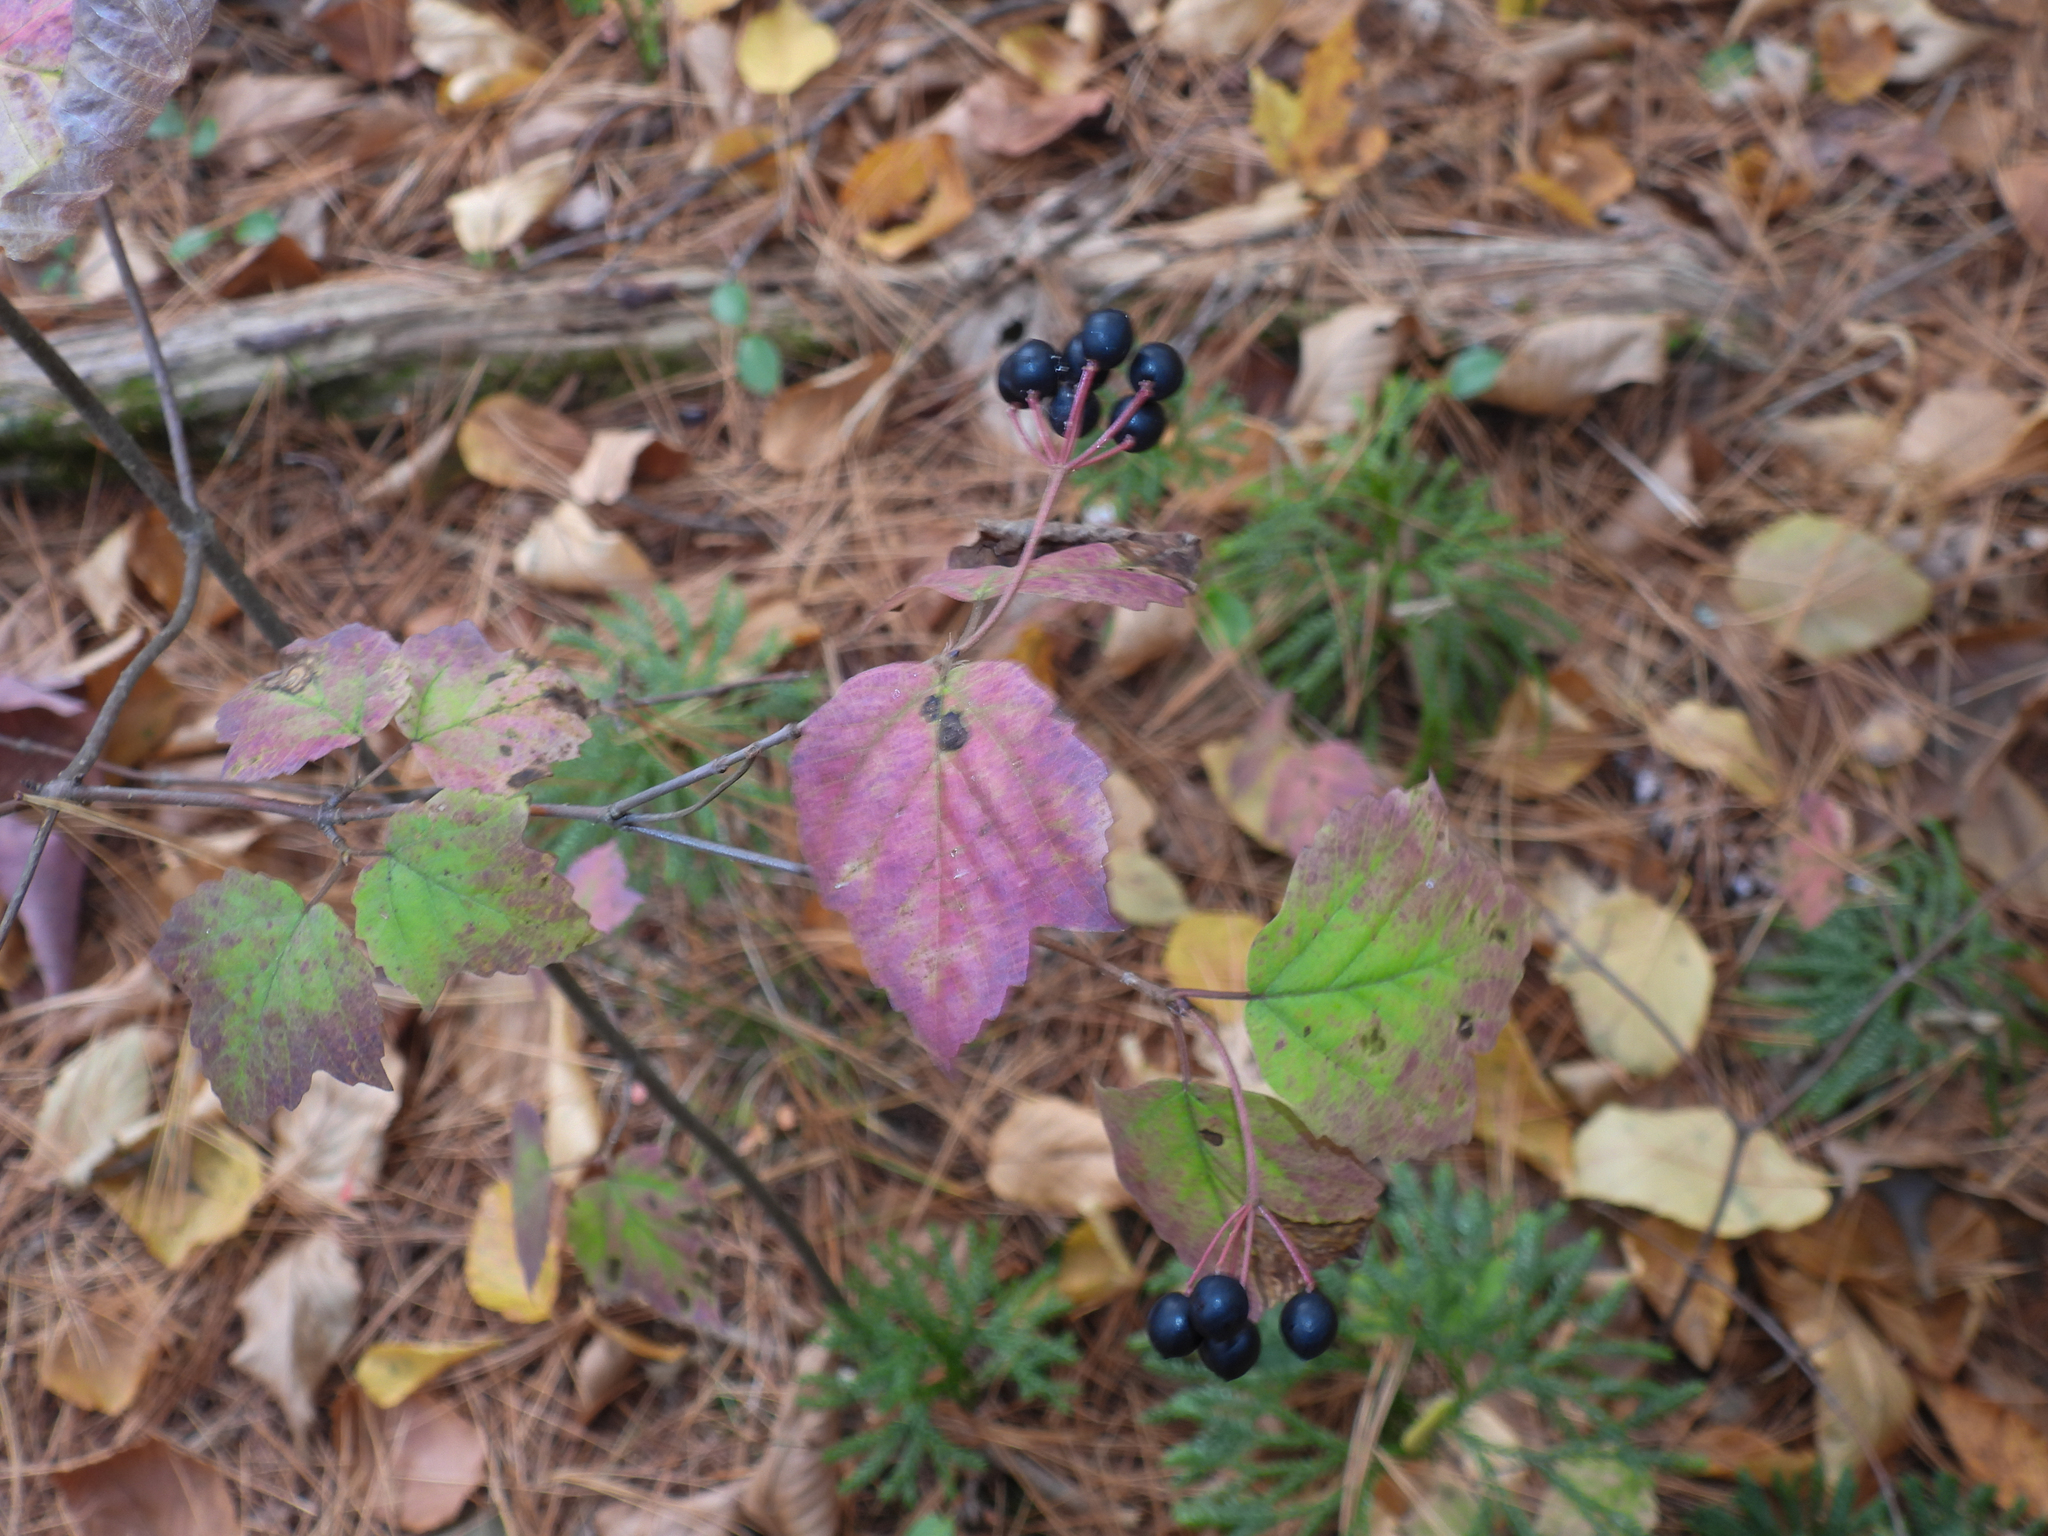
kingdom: Plantae
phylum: Tracheophyta
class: Magnoliopsida
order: Dipsacales
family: Viburnaceae
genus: Viburnum
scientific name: Viburnum acerifolium
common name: Dockmackie
